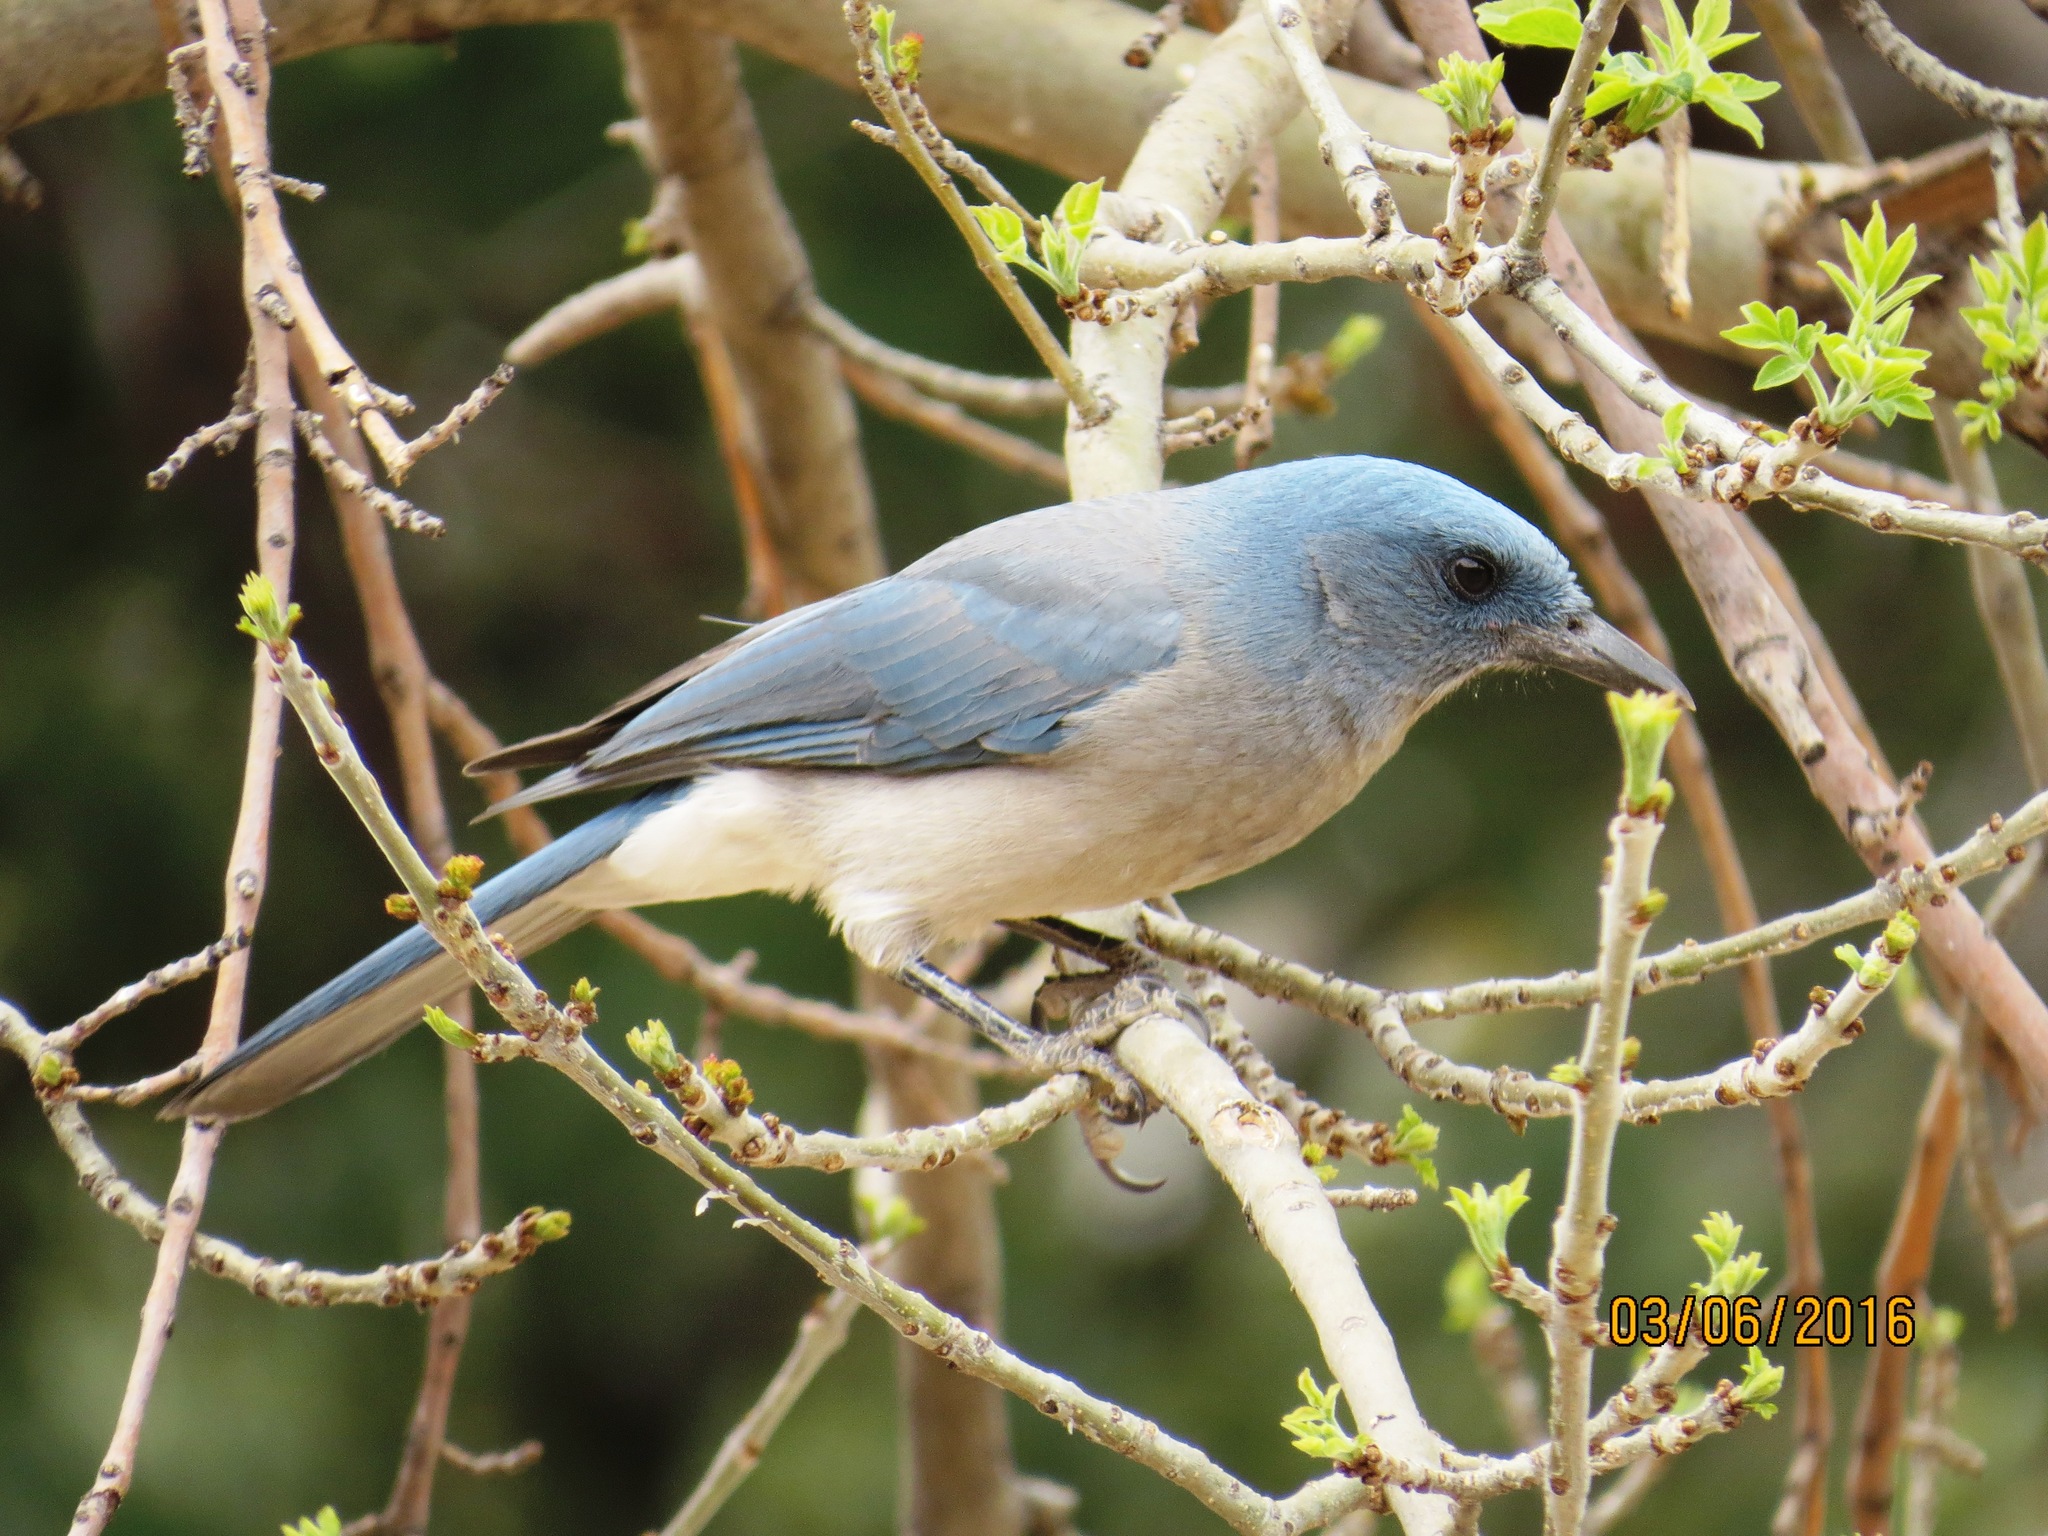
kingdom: Animalia
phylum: Chordata
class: Aves
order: Passeriformes
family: Corvidae
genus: Aphelocoma
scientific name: Aphelocoma wollweberi
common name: Mexican jay
